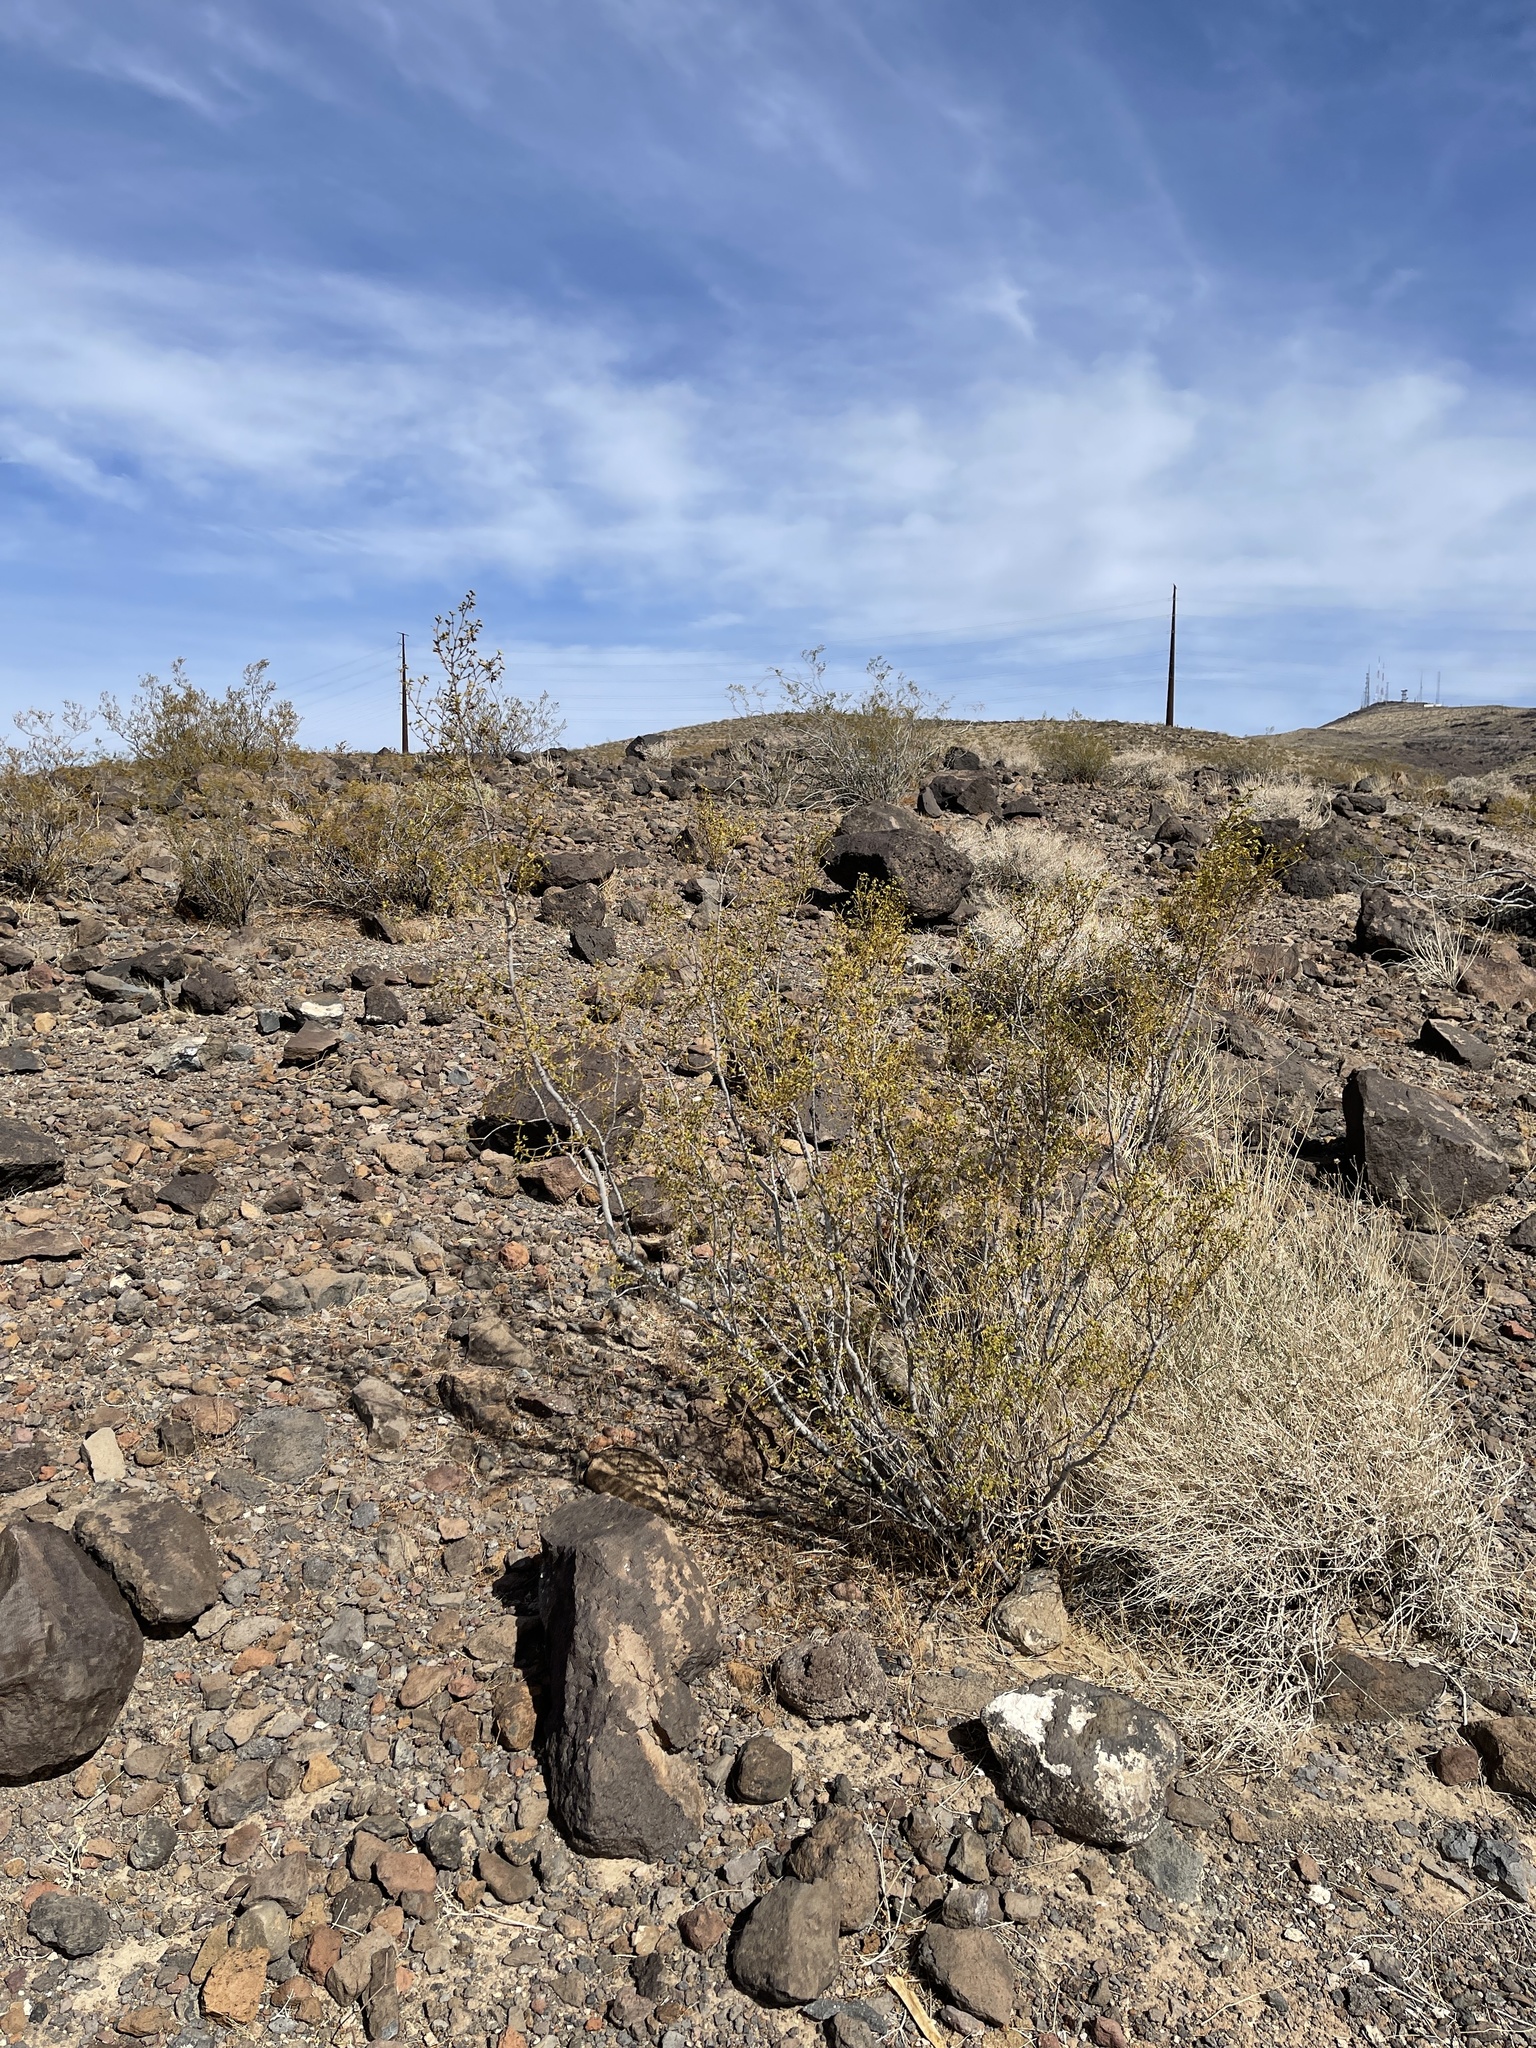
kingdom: Plantae
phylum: Tracheophyta
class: Magnoliopsida
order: Zygophyllales
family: Zygophyllaceae
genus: Larrea
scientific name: Larrea tridentata
